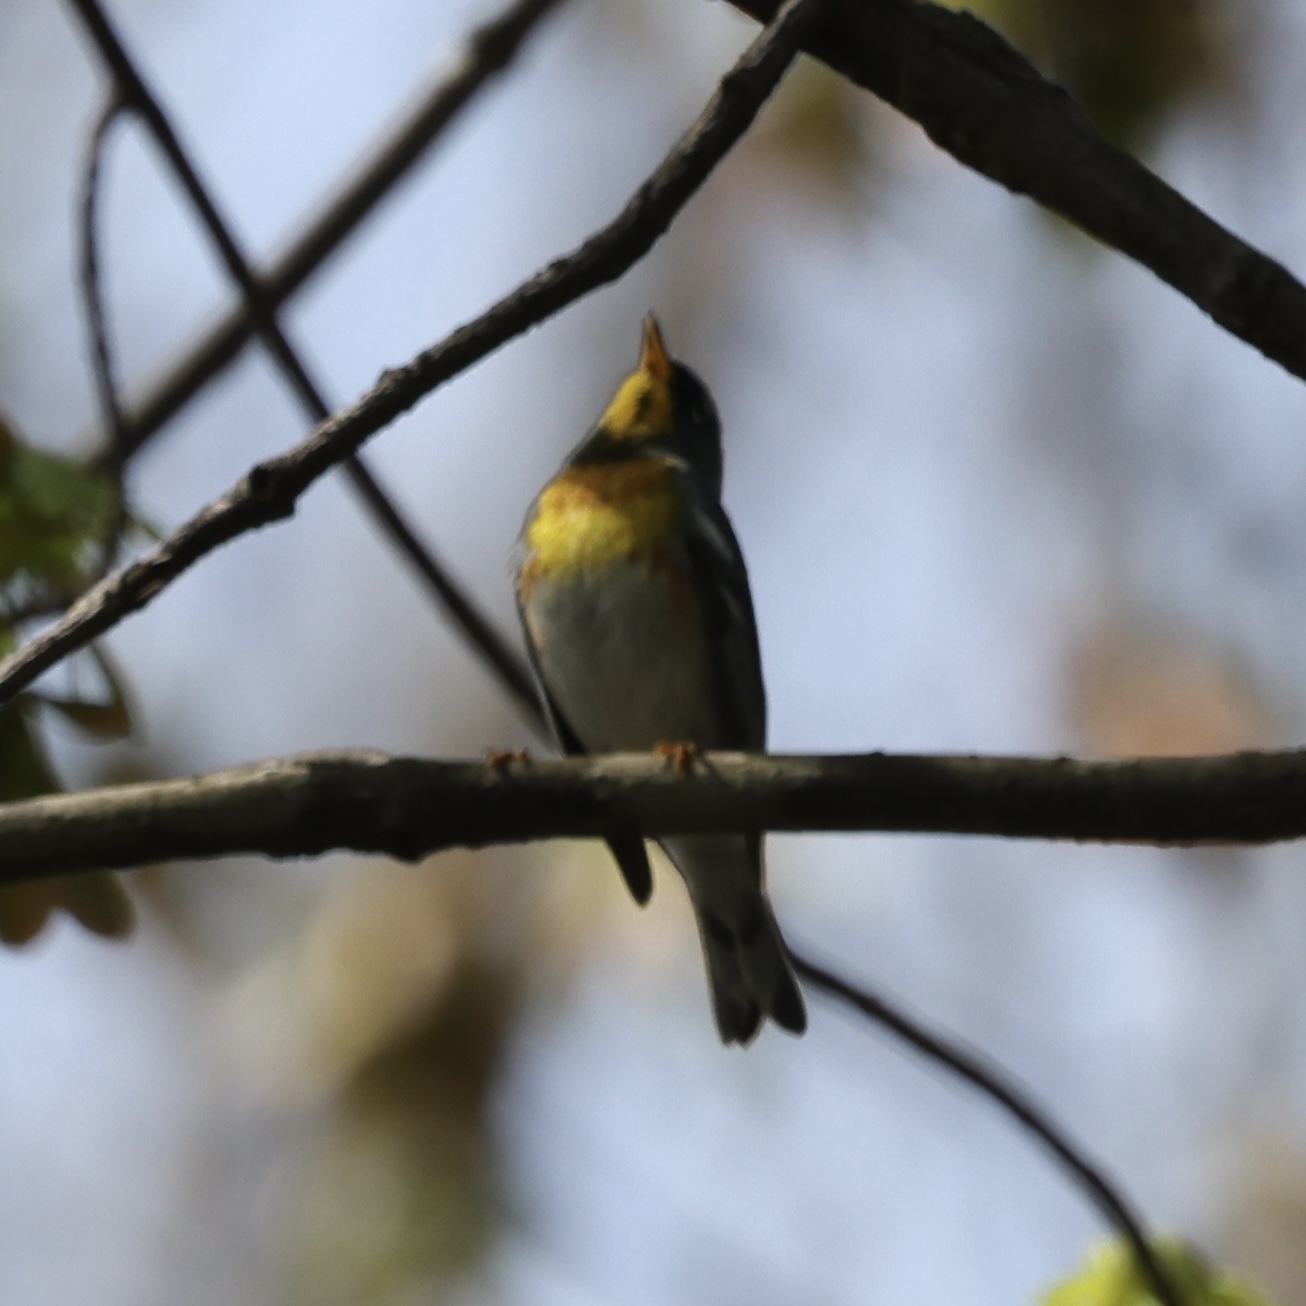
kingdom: Animalia
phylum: Chordata
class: Aves
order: Passeriformes
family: Parulidae
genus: Setophaga
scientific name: Setophaga americana
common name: Northern parula
